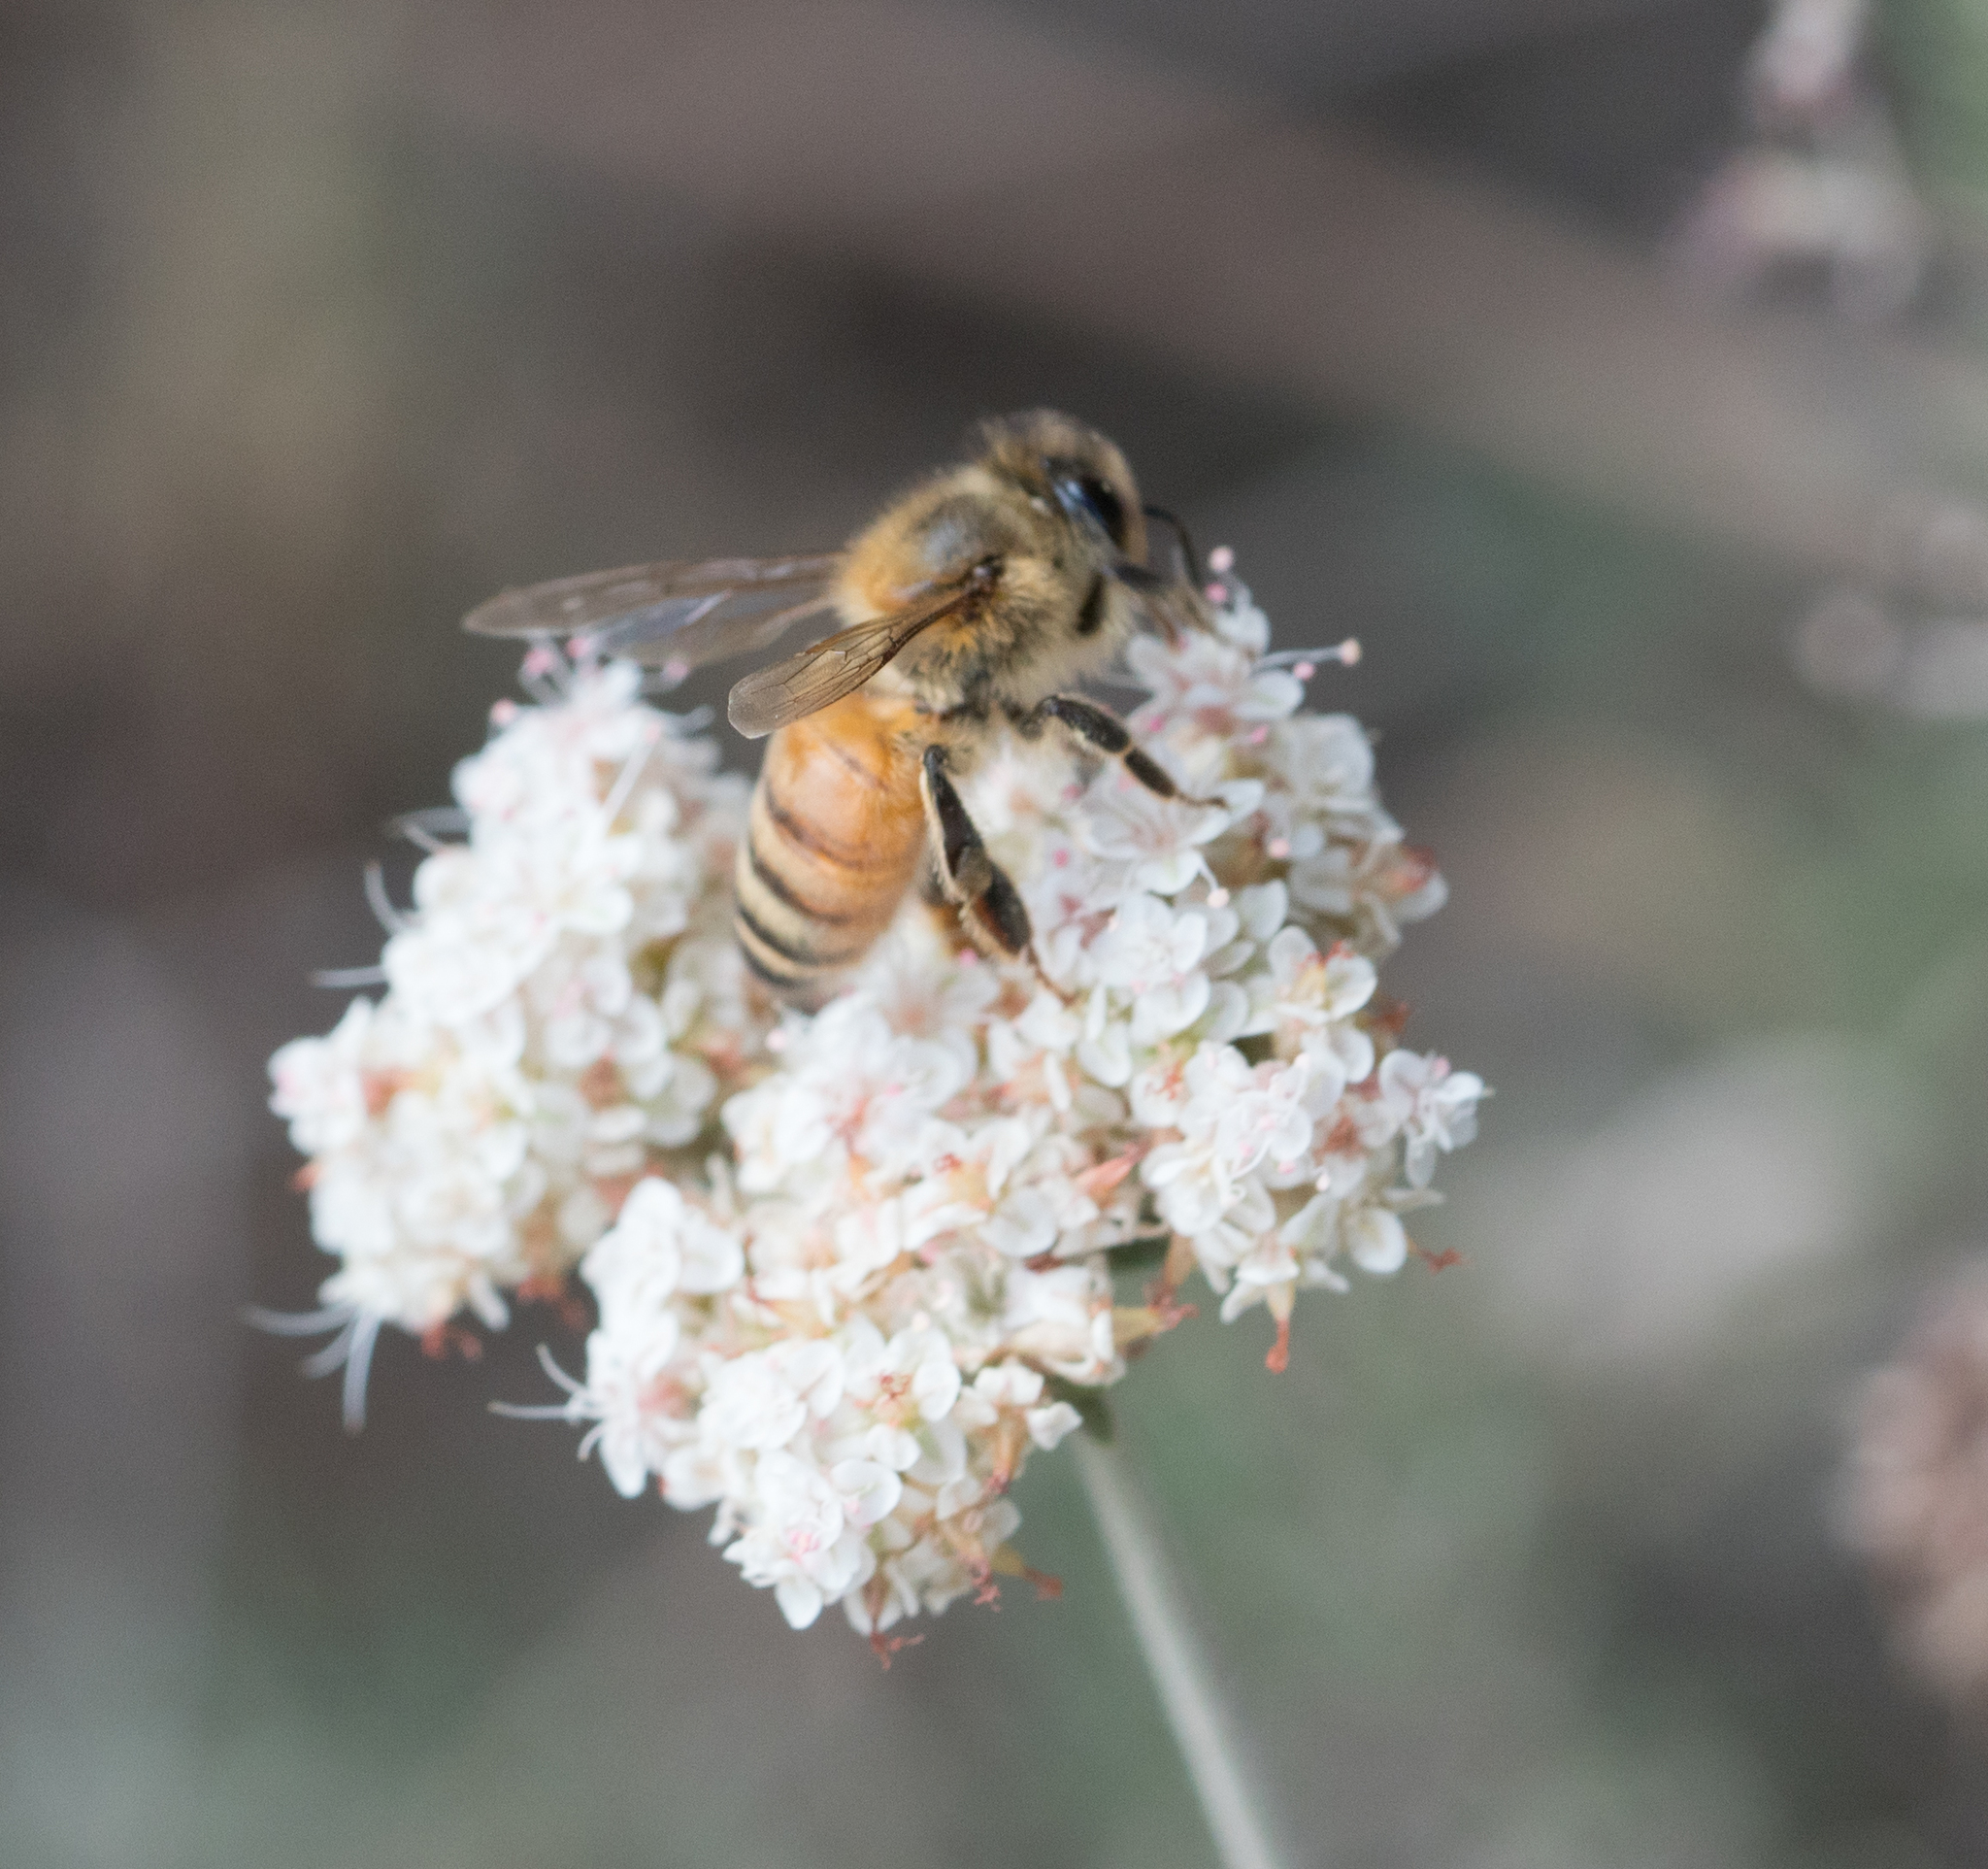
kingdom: Animalia
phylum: Arthropoda
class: Insecta
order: Hymenoptera
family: Apidae
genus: Apis
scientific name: Apis mellifera
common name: Honey bee
